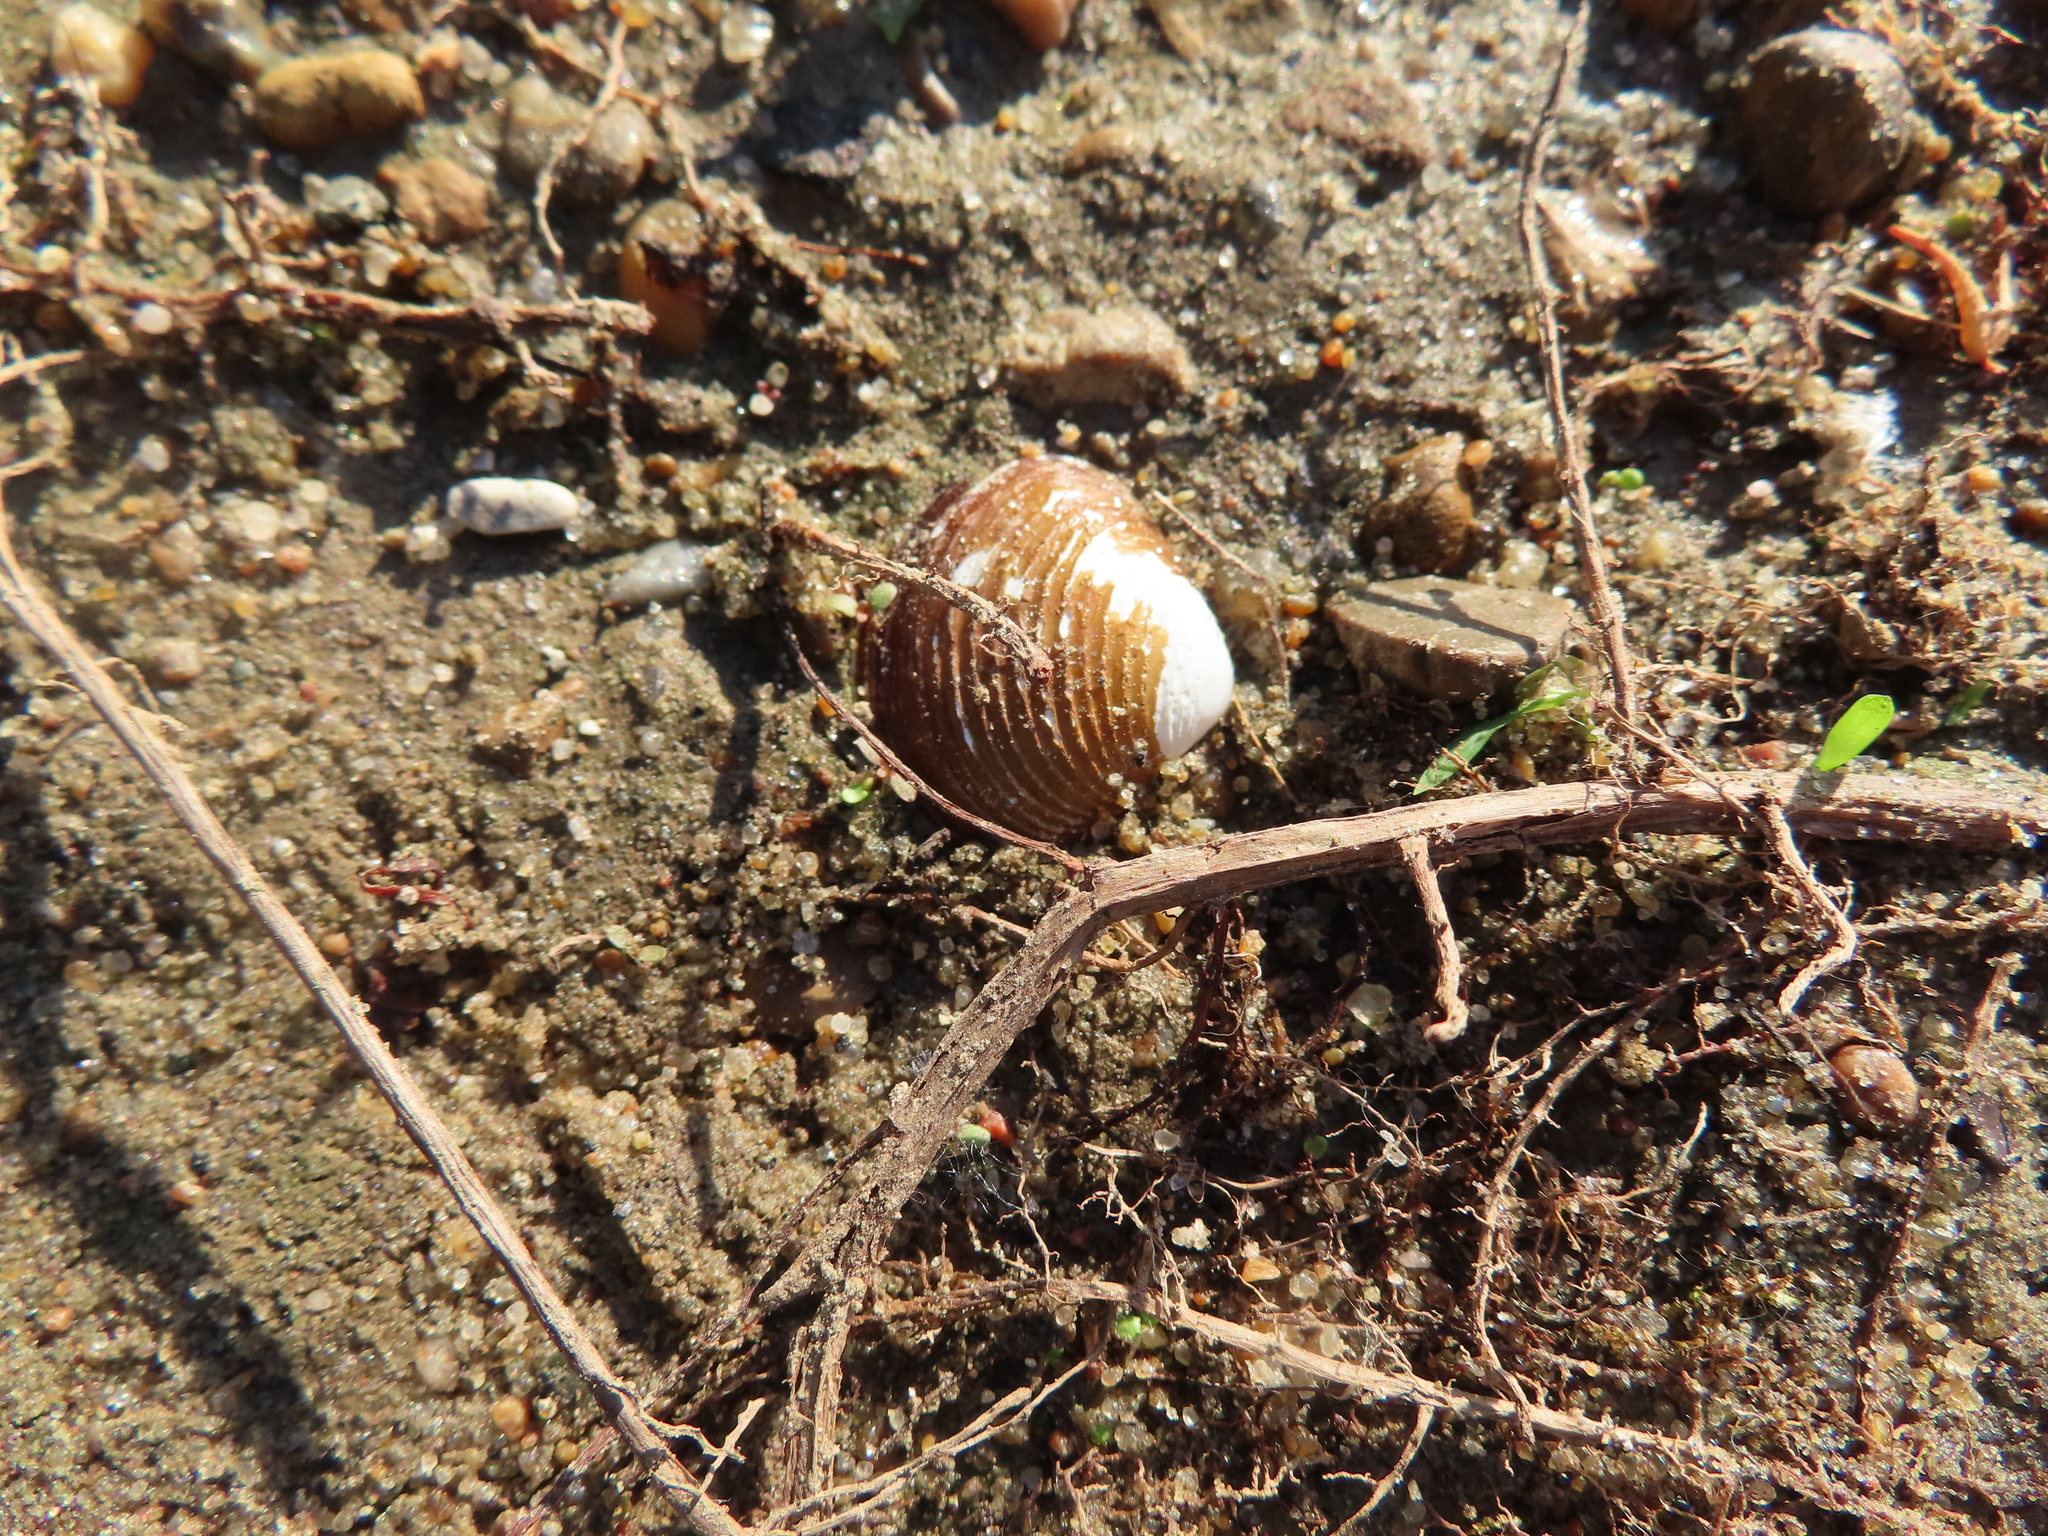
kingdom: Animalia
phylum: Mollusca
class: Bivalvia
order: Venerida
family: Cyrenidae
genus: Corbicula
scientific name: Corbicula fluminea
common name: Asian clam
